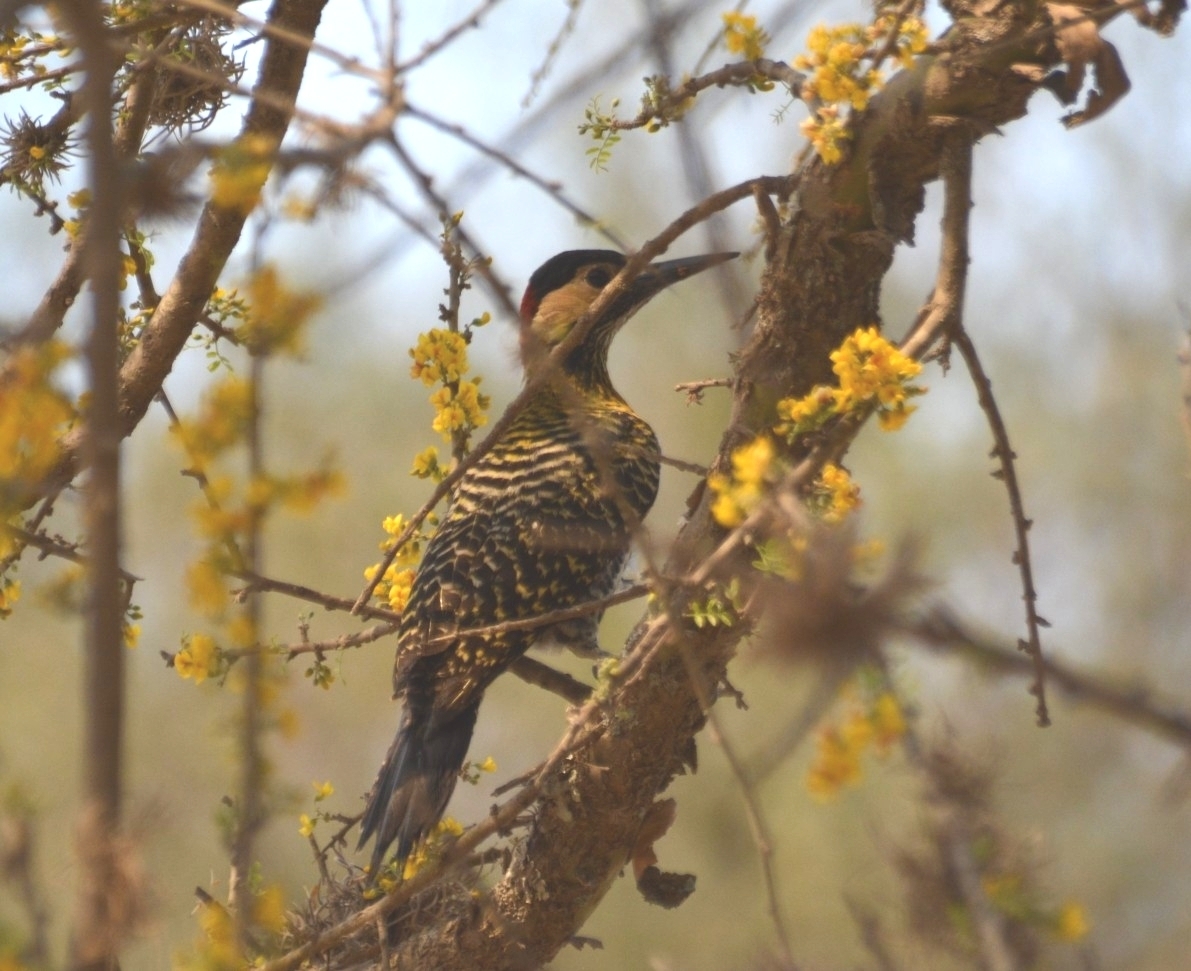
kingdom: Animalia
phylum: Chordata
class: Aves
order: Piciformes
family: Picidae
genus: Colaptes
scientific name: Colaptes melanochloros
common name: Green-barred woodpecker
